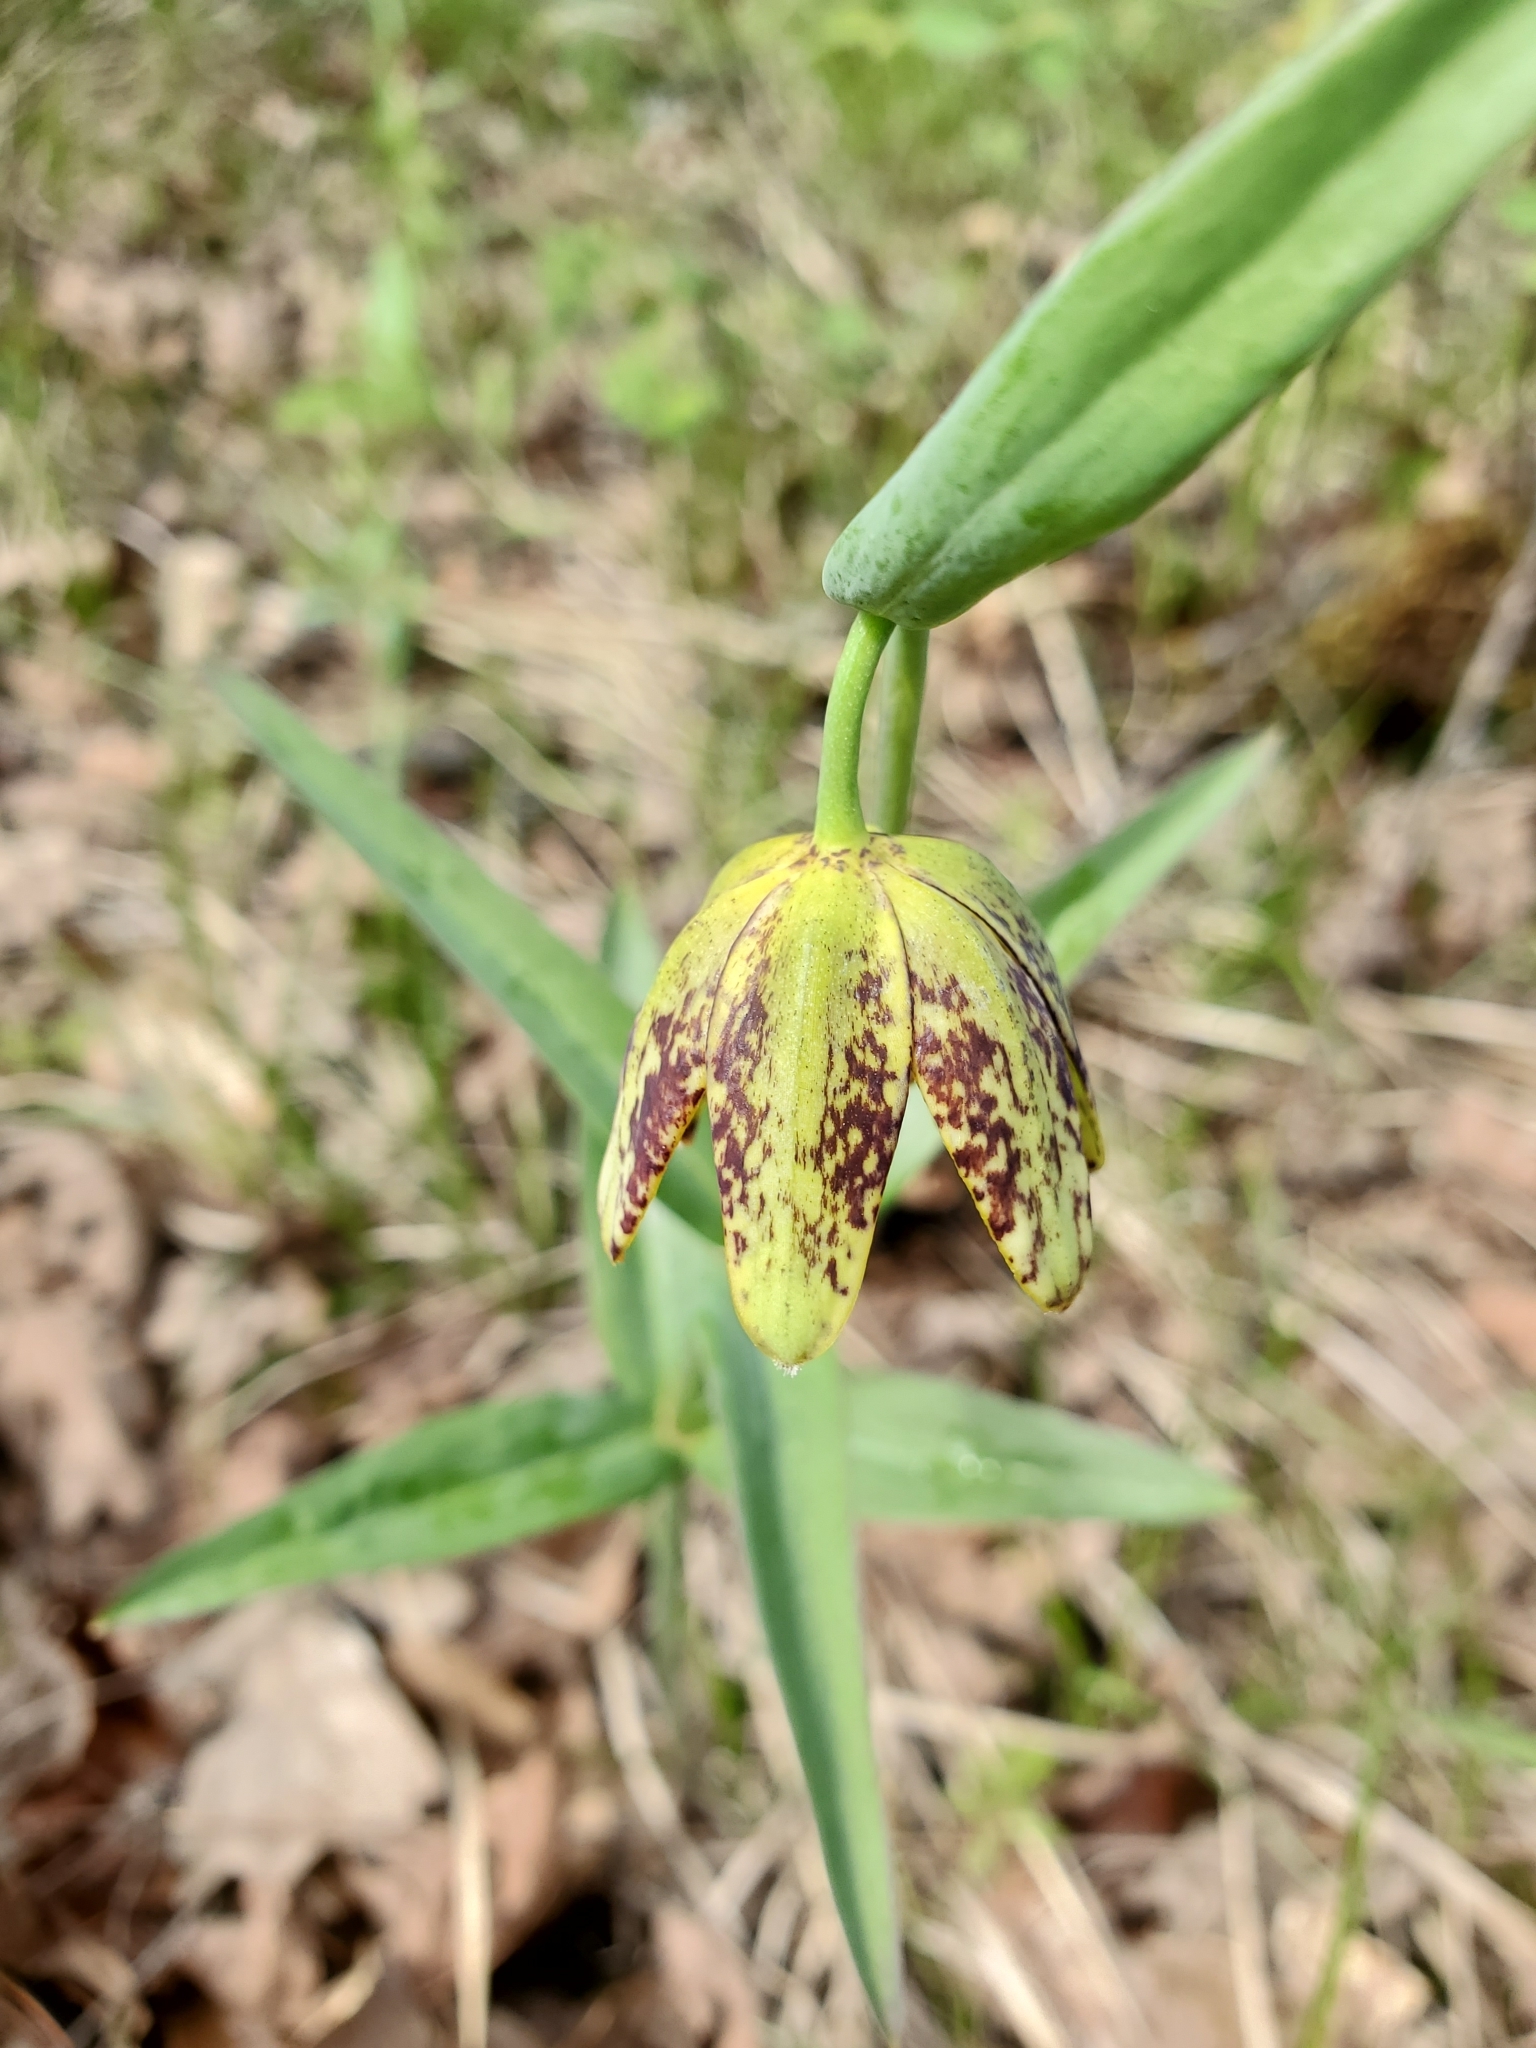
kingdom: Plantae
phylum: Tracheophyta
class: Liliopsida
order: Liliales
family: Liliaceae
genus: Fritillaria
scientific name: Fritillaria affinis
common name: Ojai fritillary
